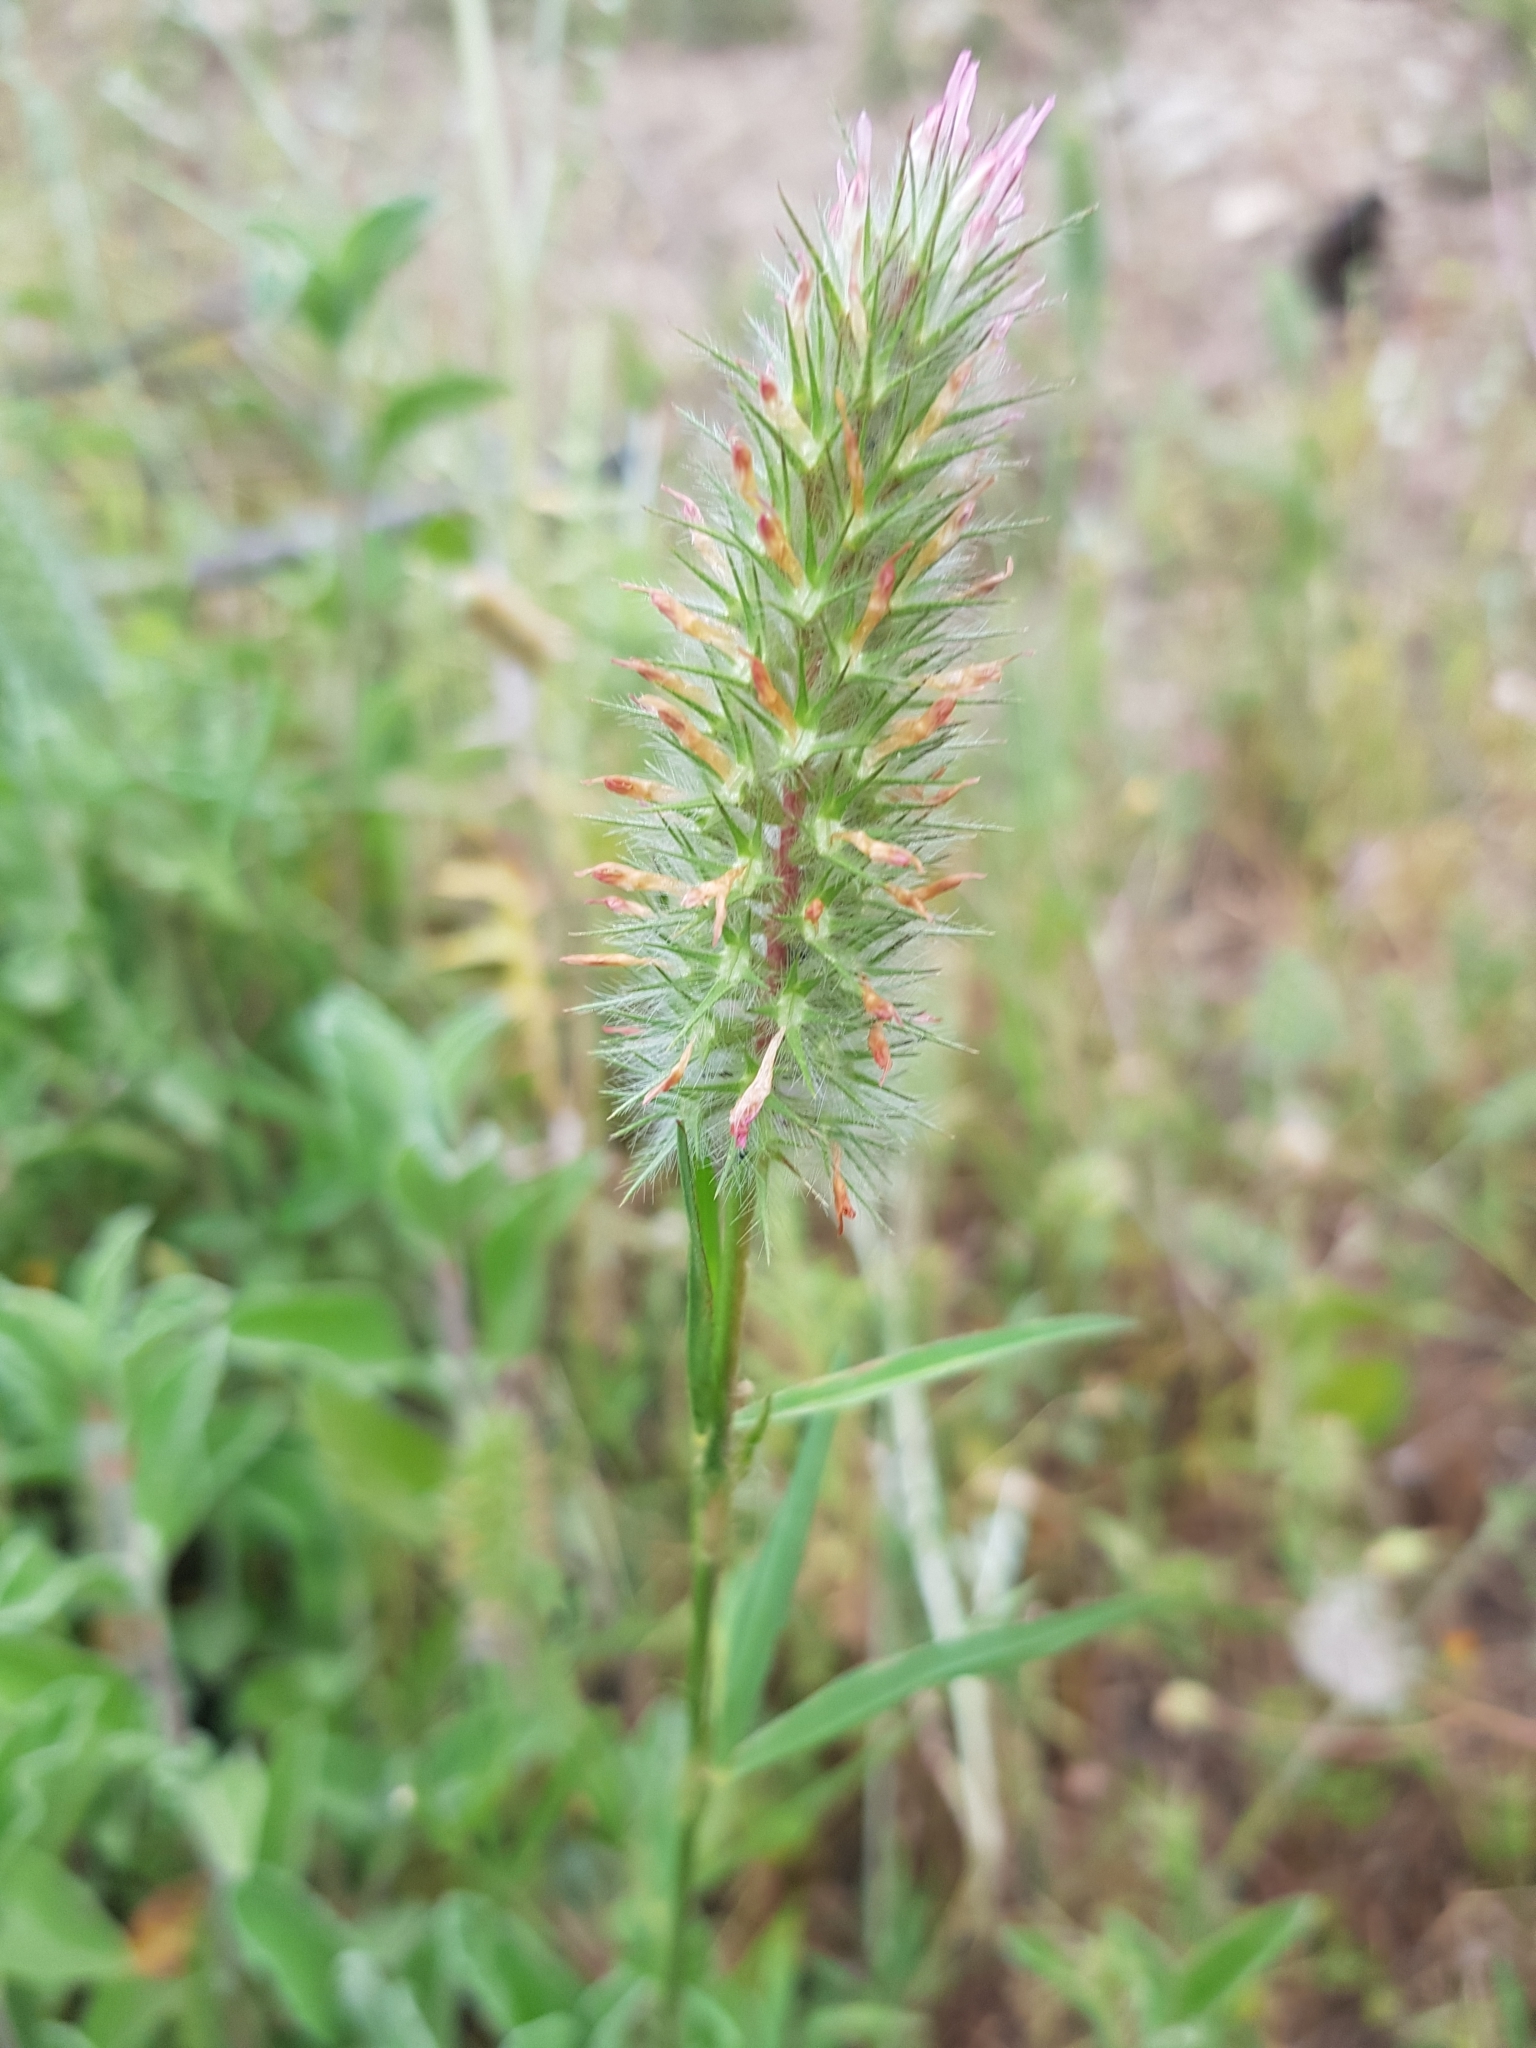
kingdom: Plantae
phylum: Tracheophyta
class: Magnoliopsida
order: Fabales
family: Fabaceae
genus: Trifolium
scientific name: Trifolium angustifolium
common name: Narrow clover
